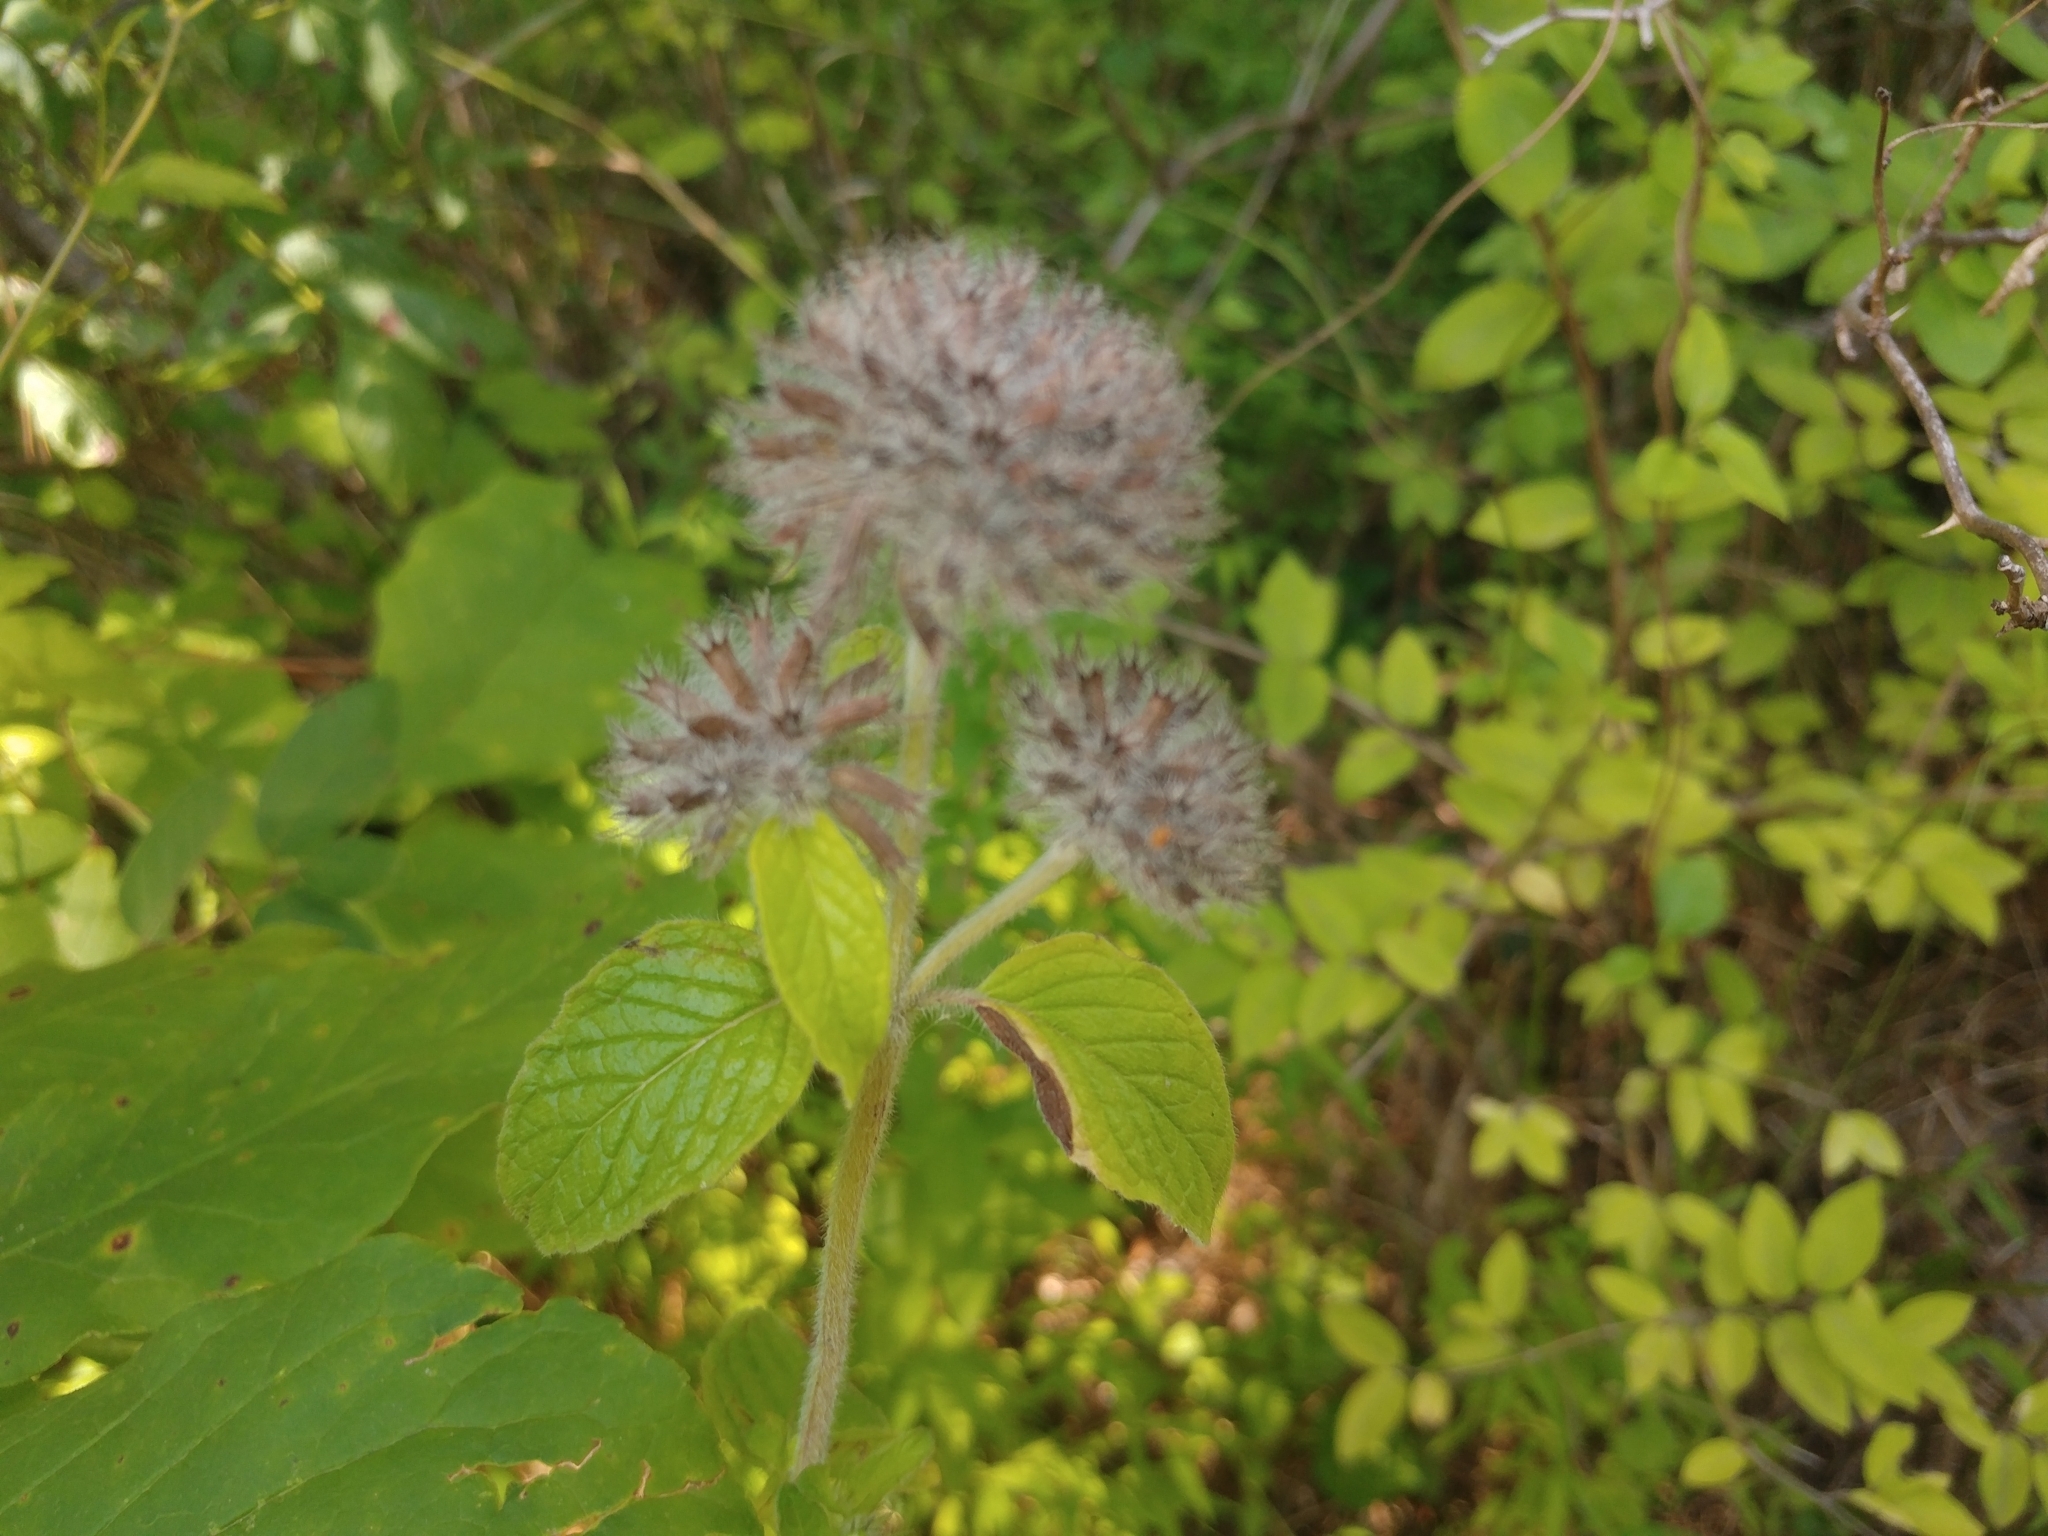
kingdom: Plantae
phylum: Tracheophyta
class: Magnoliopsida
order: Lamiales
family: Lamiaceae
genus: Clinopodium
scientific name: Clinopodium vulgare
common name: Wild basil
